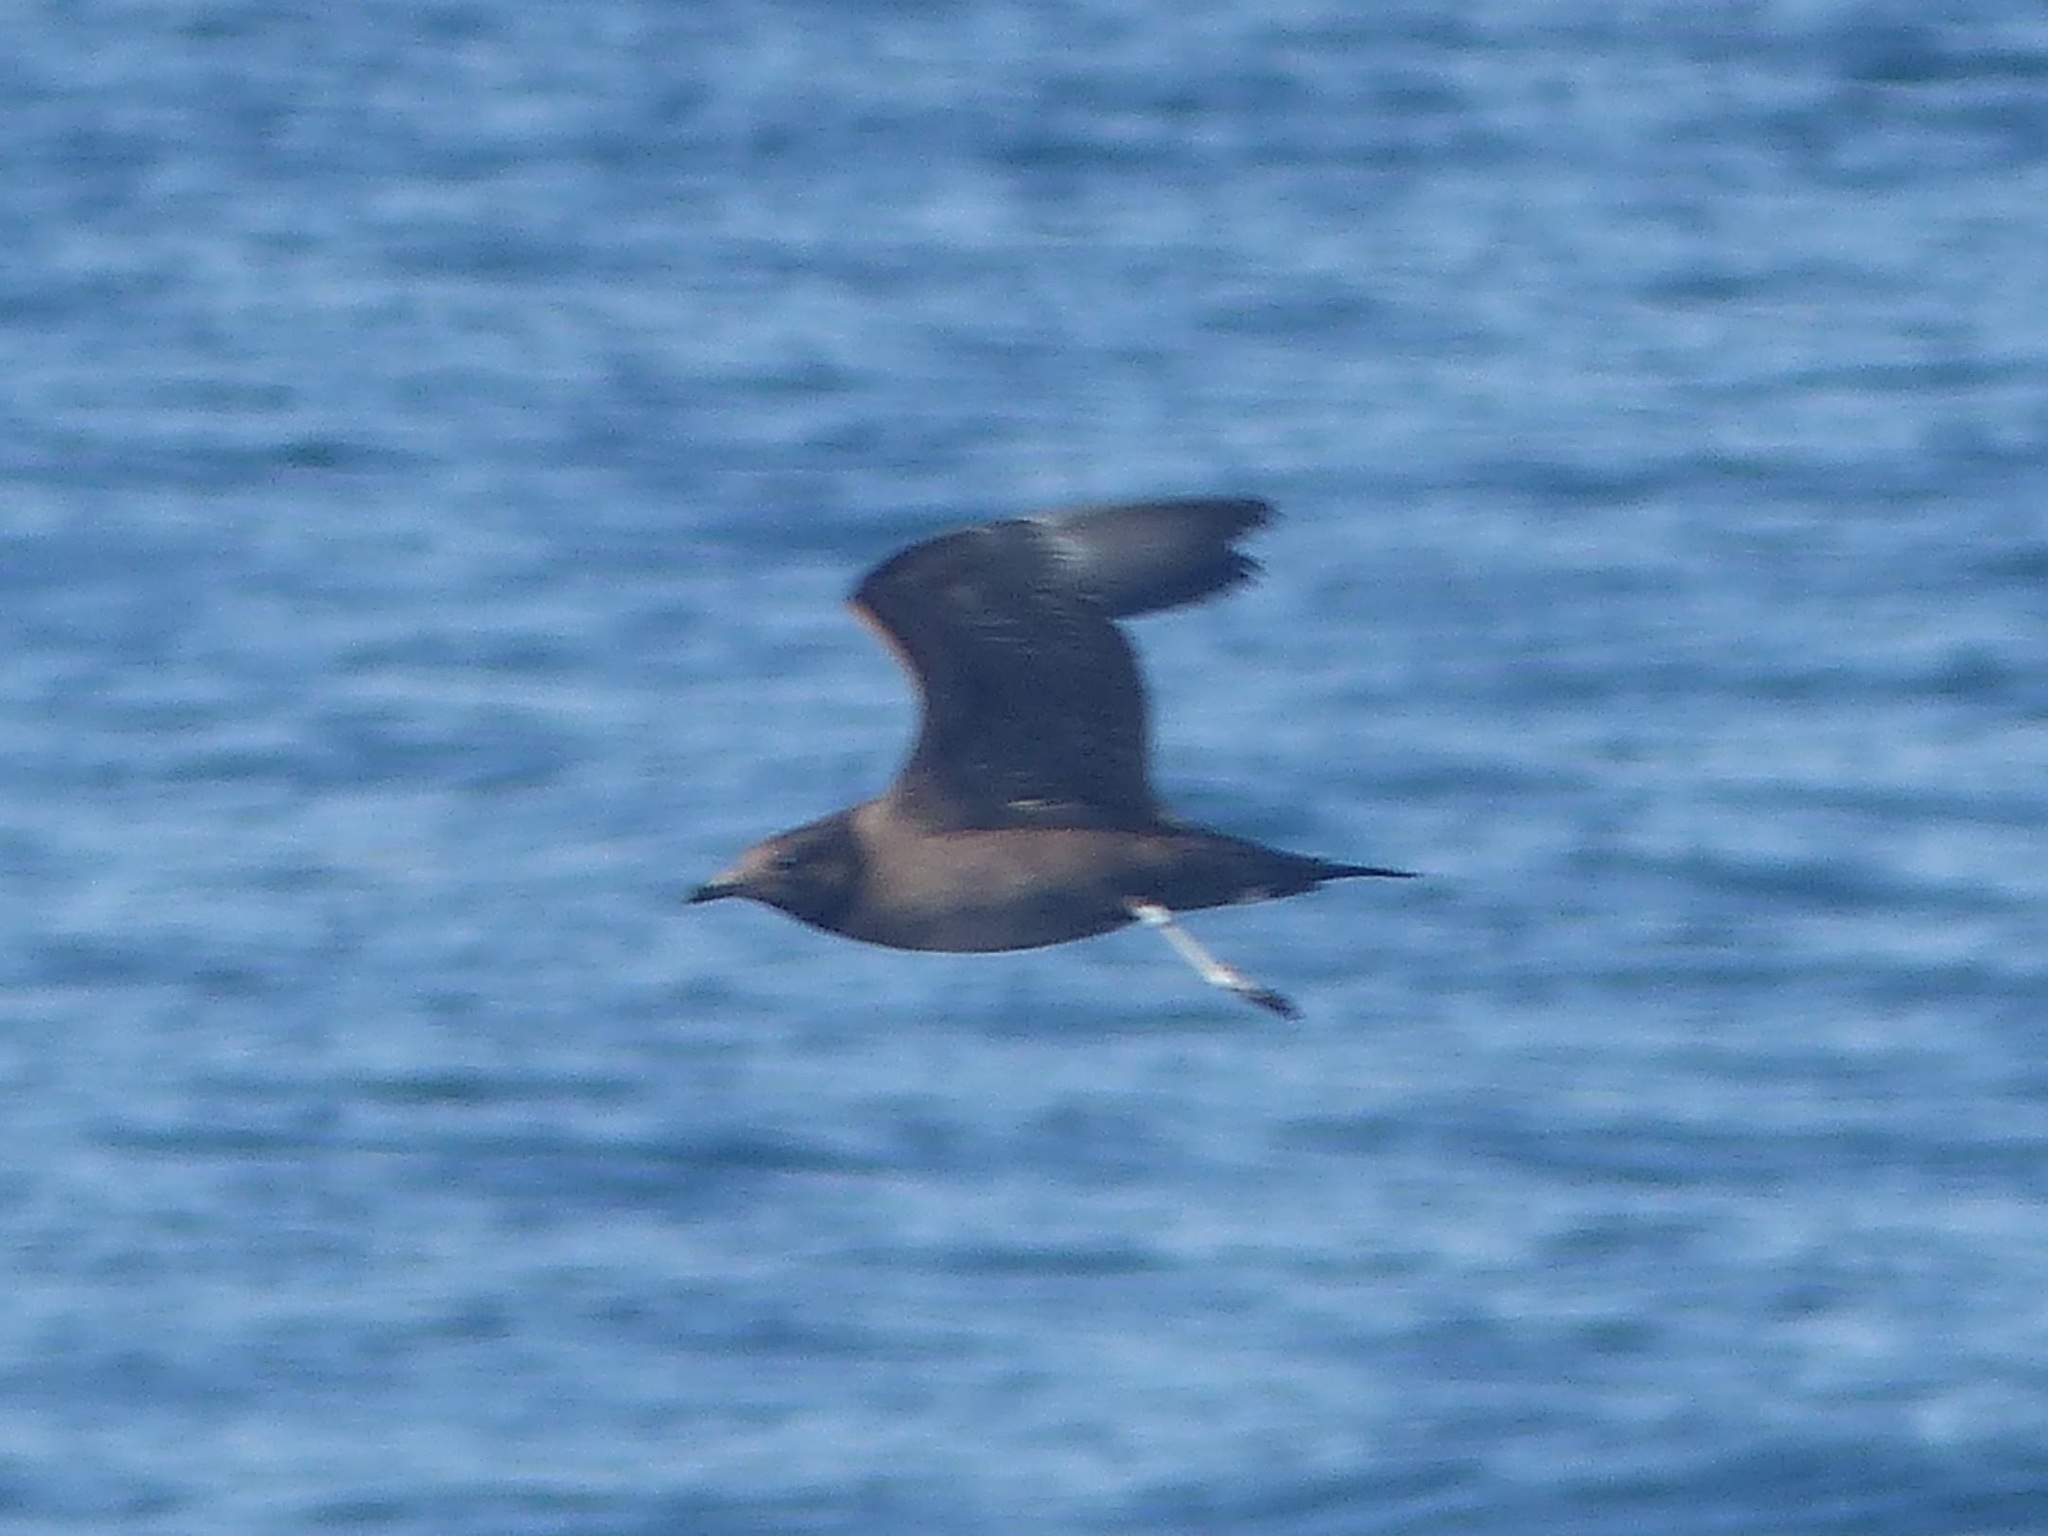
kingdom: Animalia
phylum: Chordata
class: Aves
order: Charadriiformes
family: Stercorariidae
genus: Stercorarius
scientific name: Stercorarius longicaudus
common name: Long-tailed jaeger
